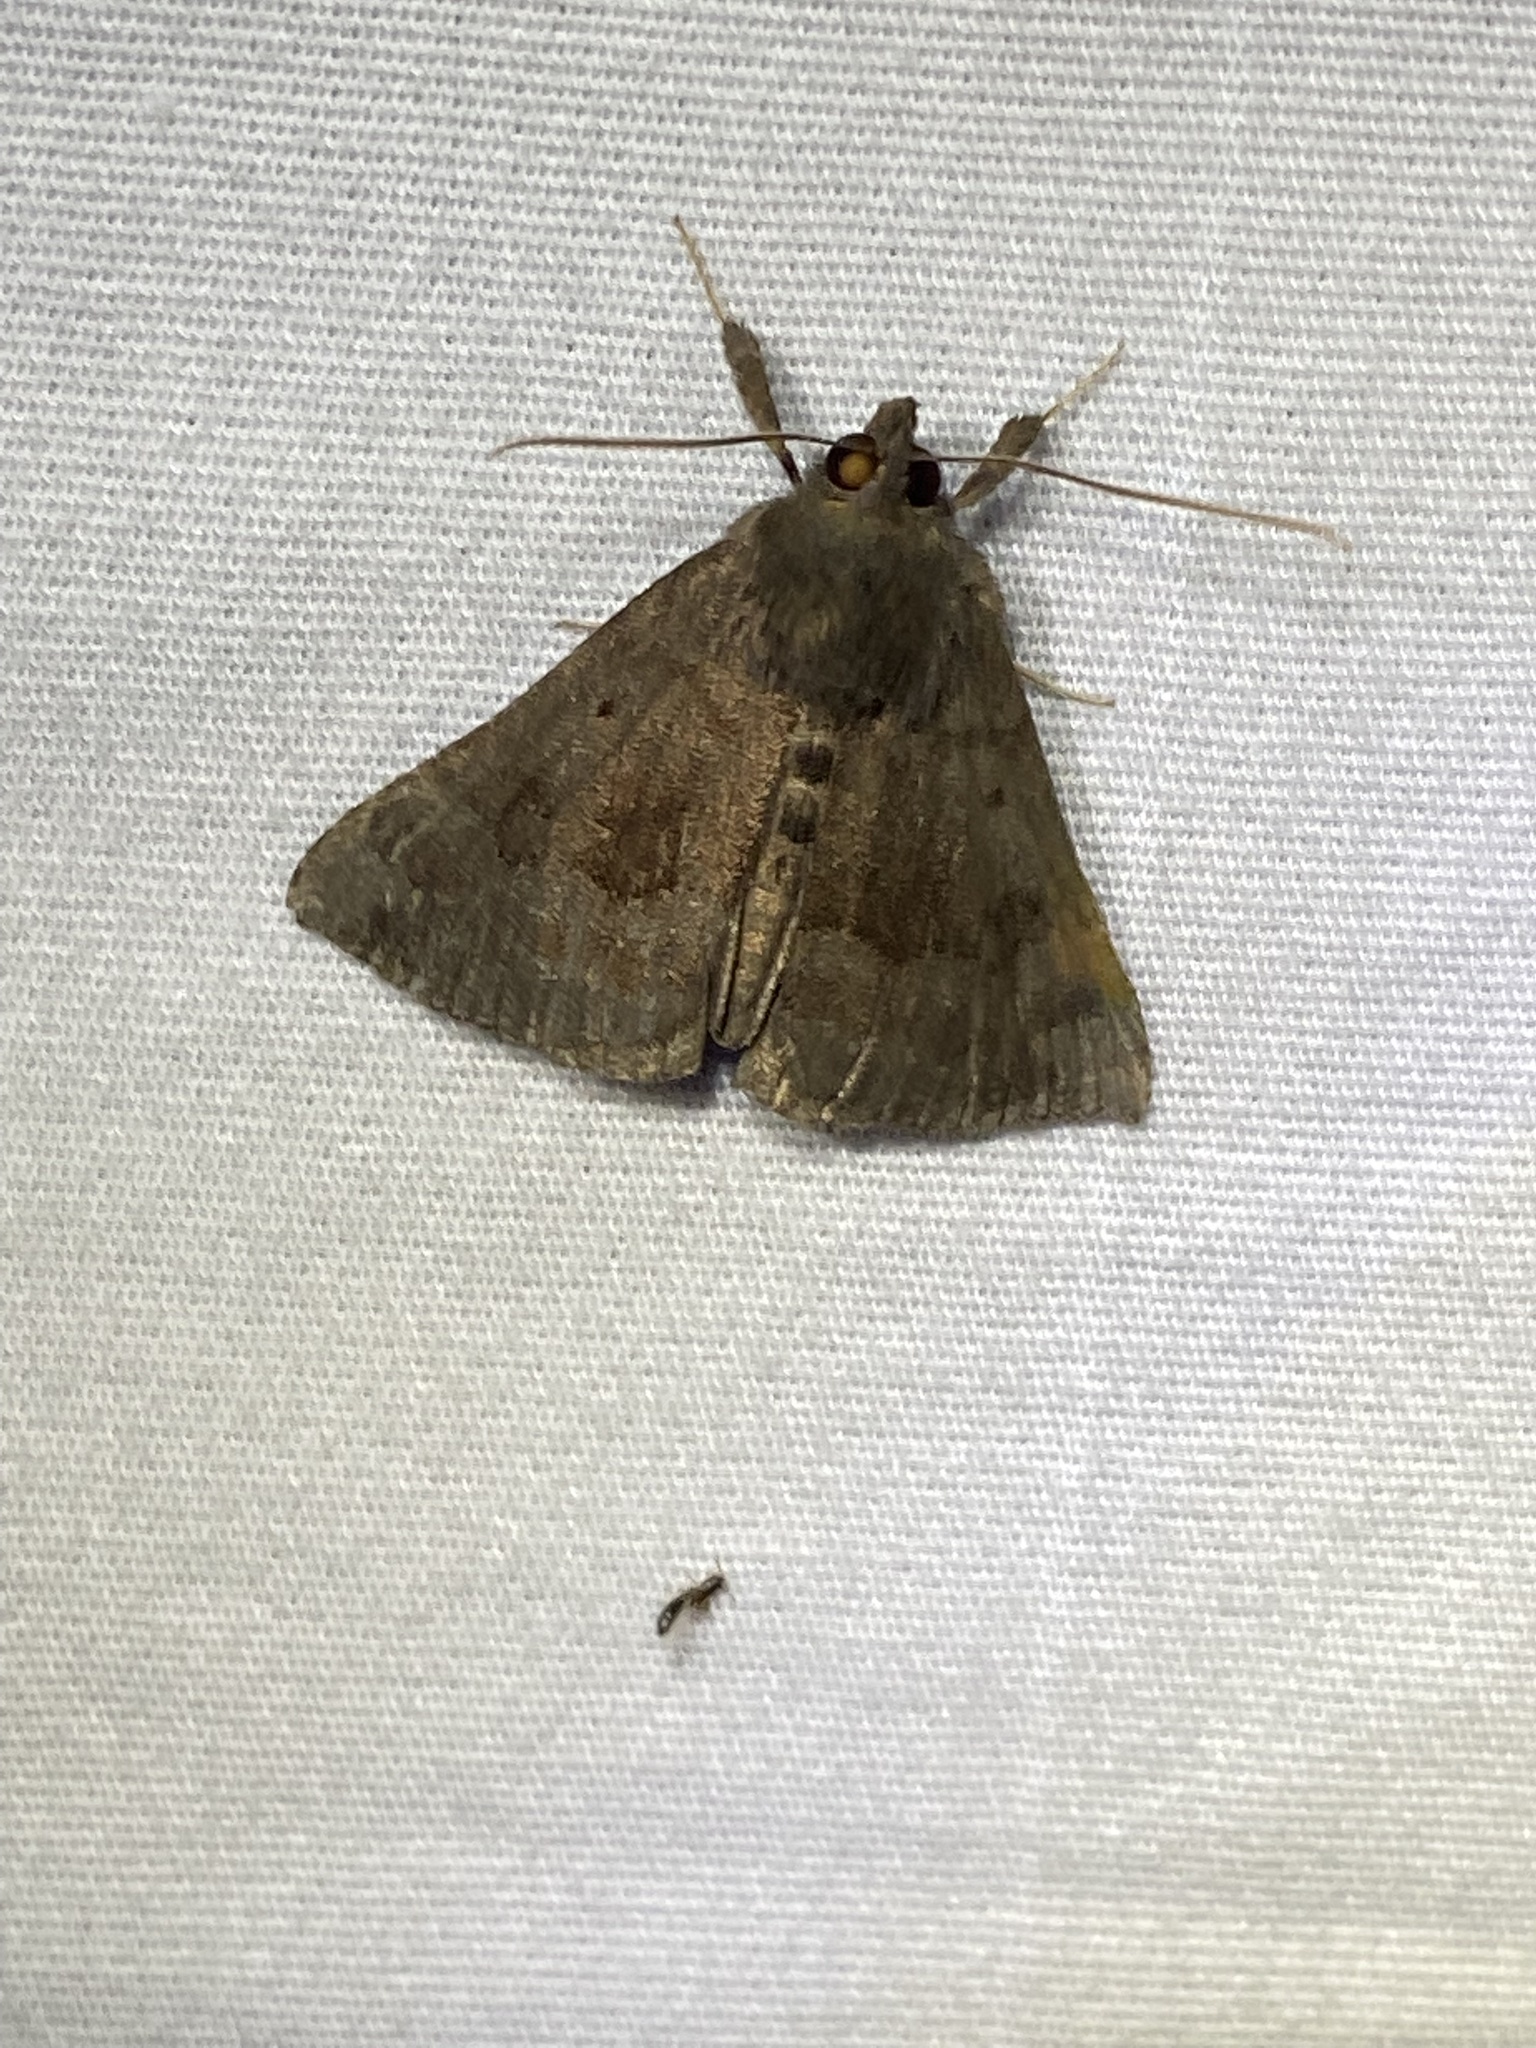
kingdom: Animalia
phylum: Arthropoda
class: Insecta
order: Lepidoptera
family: Erebidae
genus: Hypena
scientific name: Hypena madefactalis
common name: Gray-edged snout
